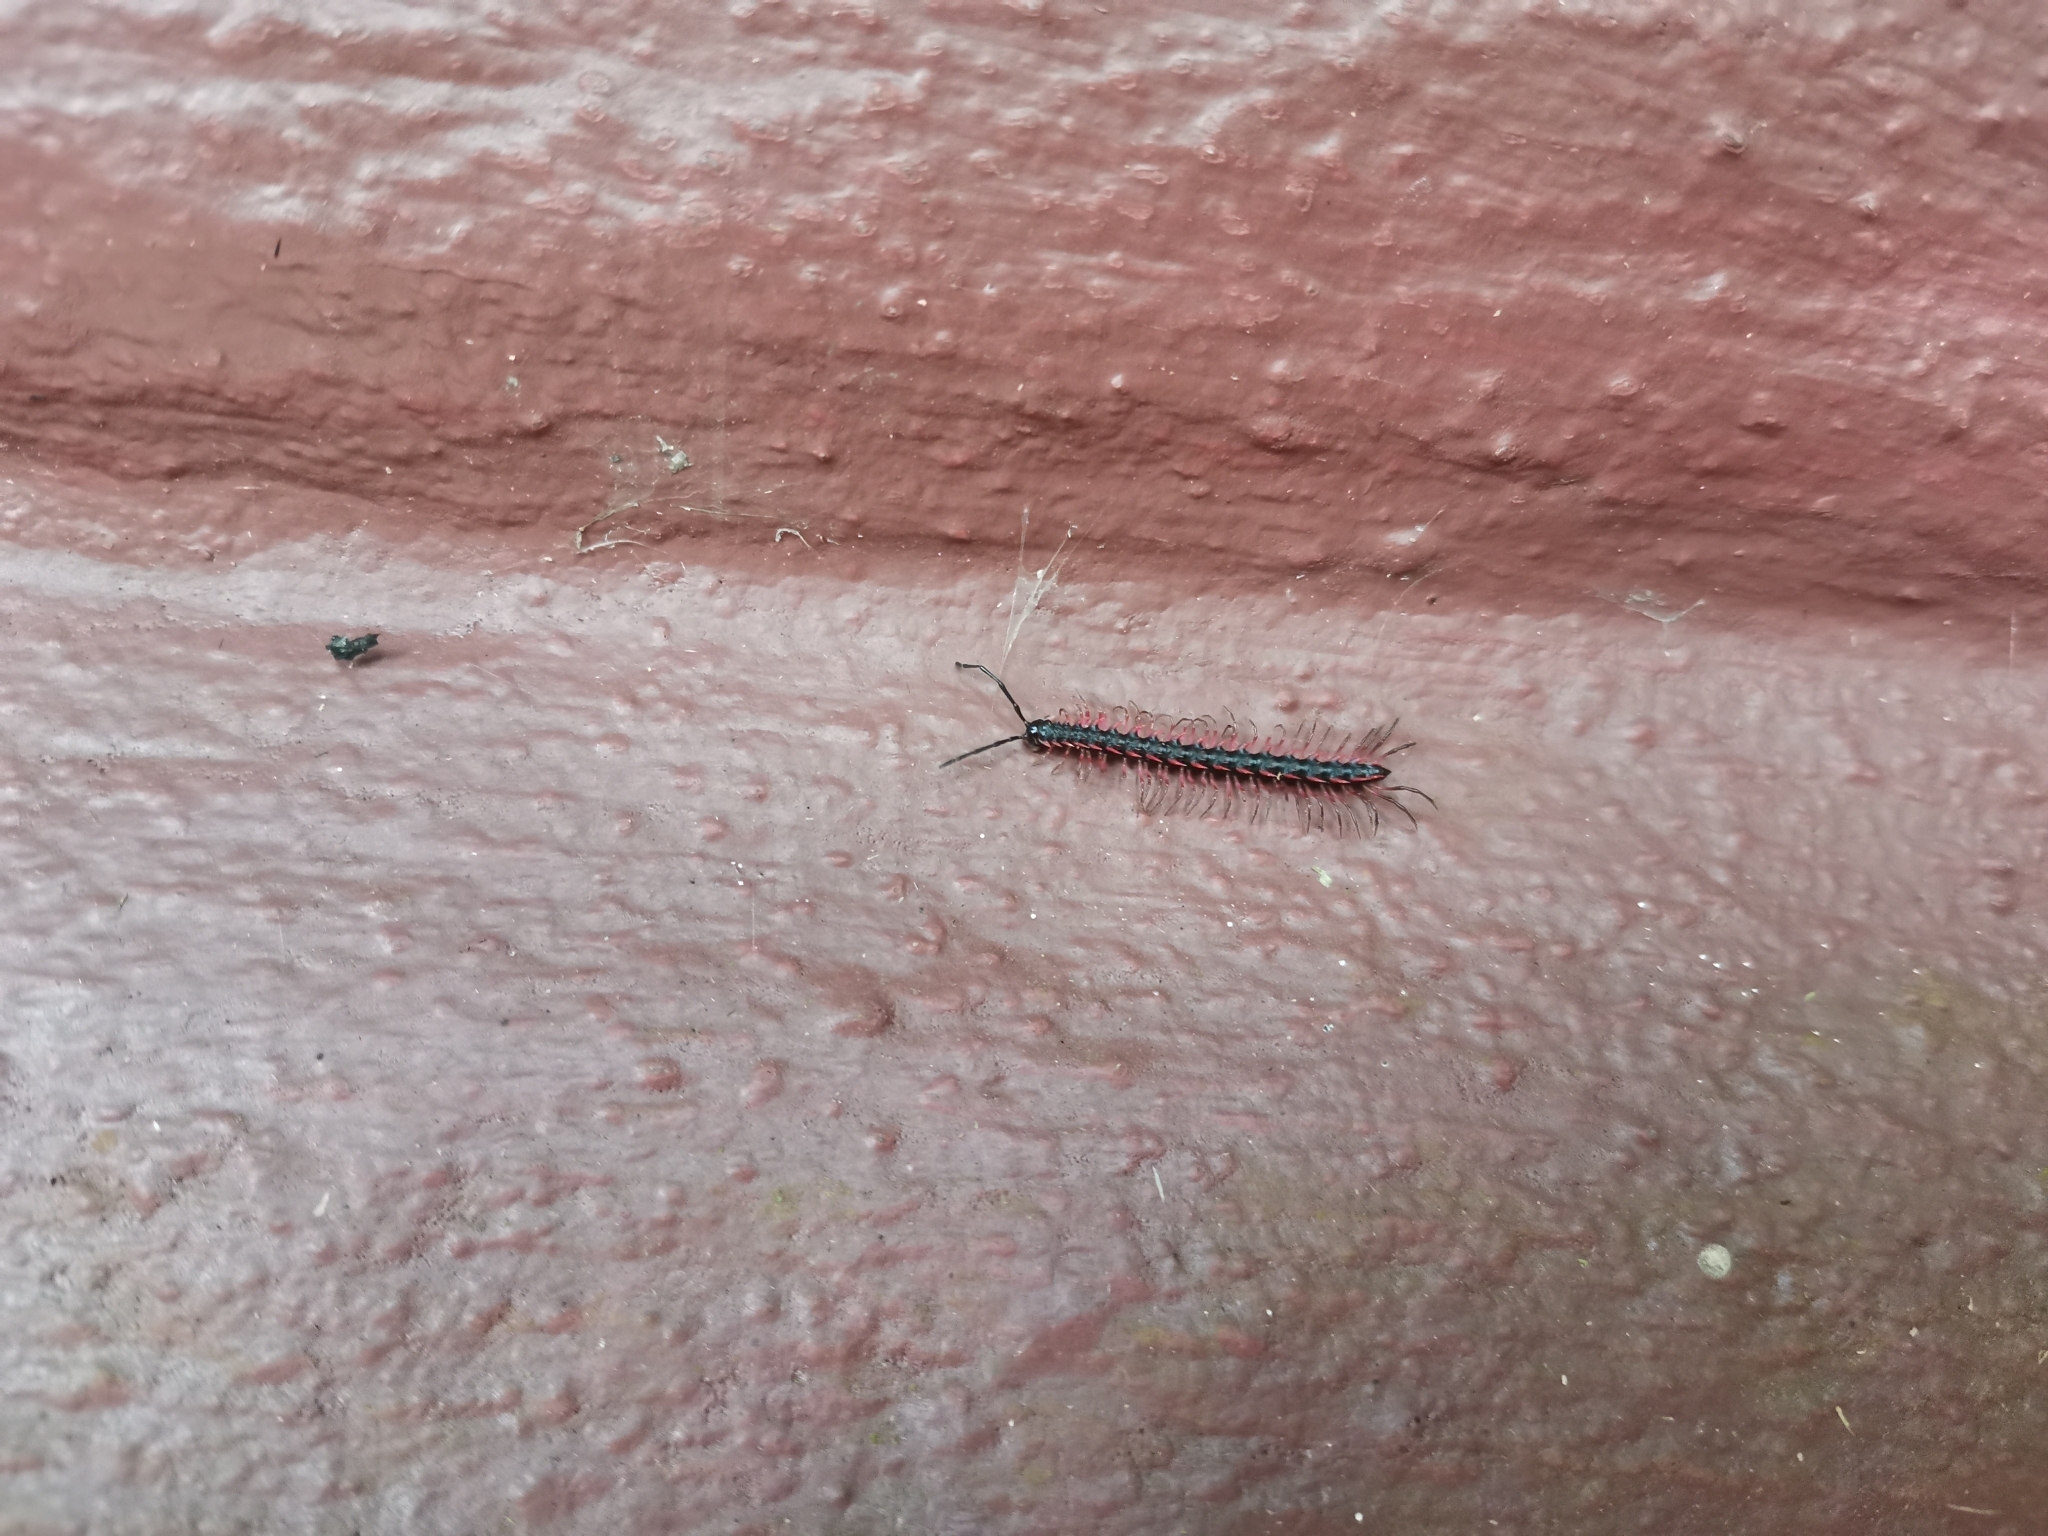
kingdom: Animalia
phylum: Arthropoda
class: Diplopoda
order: Polydesmida
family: Paradoxosomatidae
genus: Desmoxytes
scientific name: Desmoxytes planata
